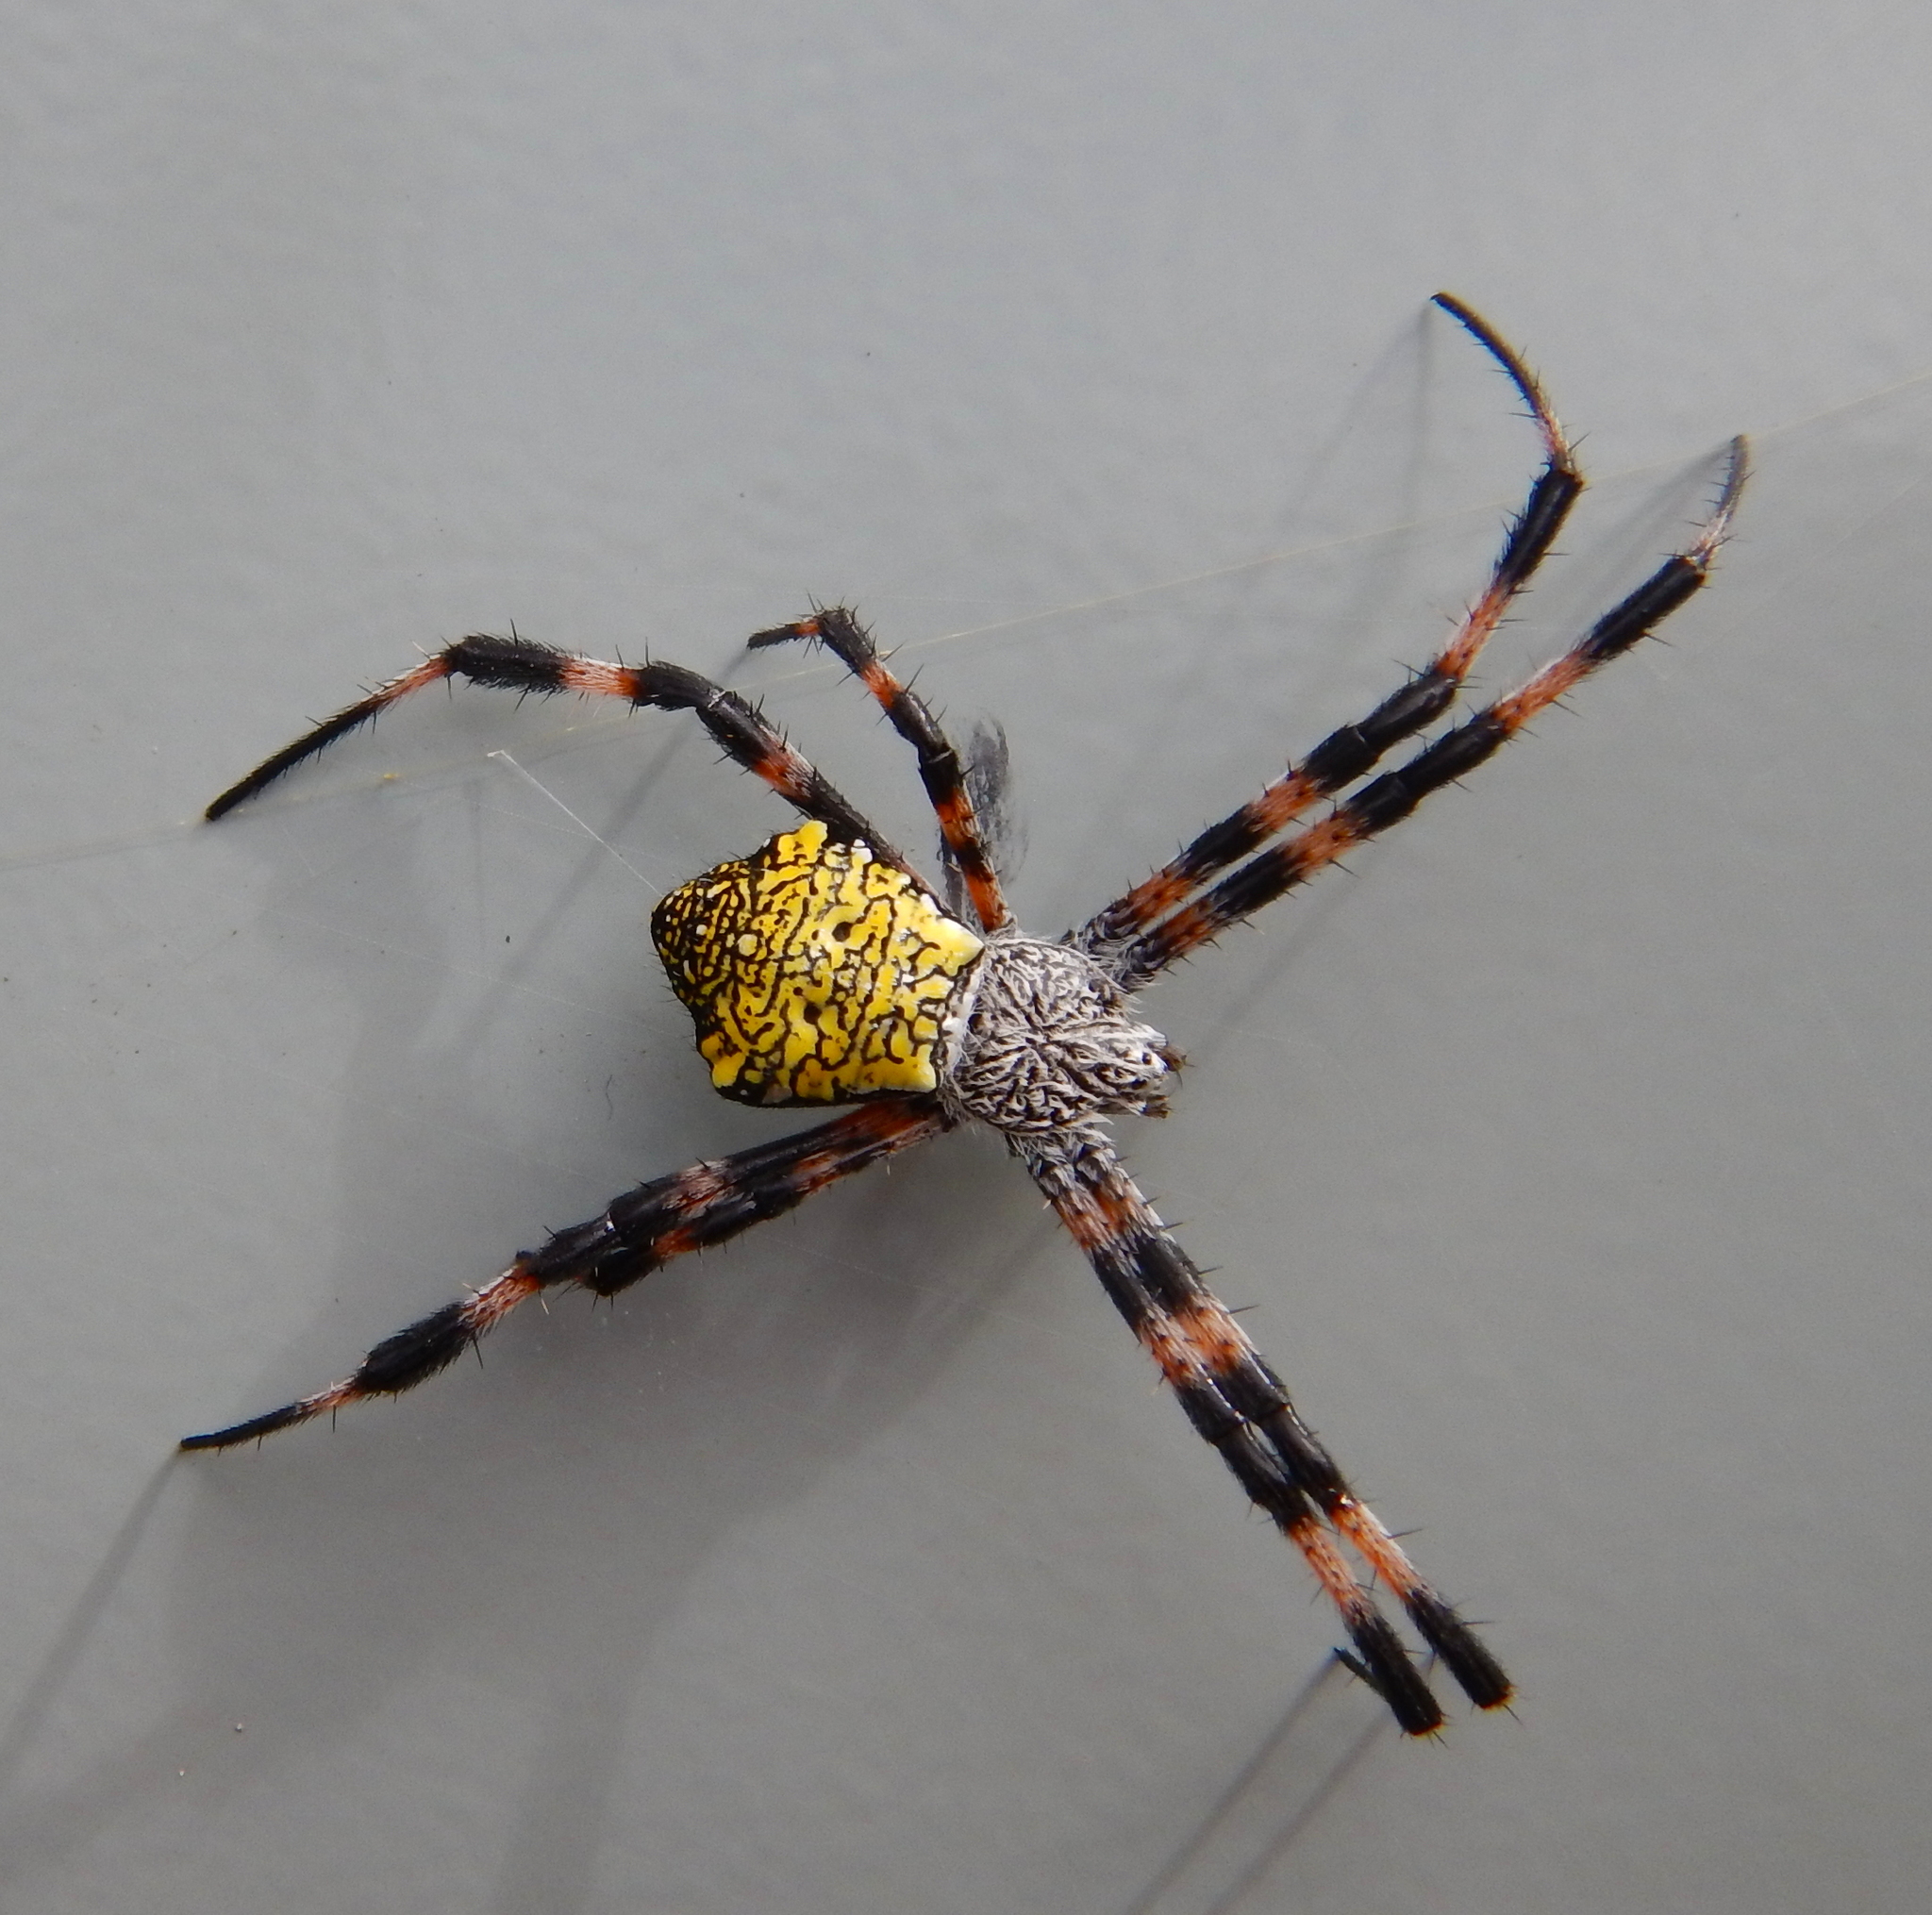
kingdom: Animalia
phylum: Arthropoda
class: Arachnida
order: Araneae
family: Araneidae
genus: Argiope
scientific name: Argiope appensa
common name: Garden spider
